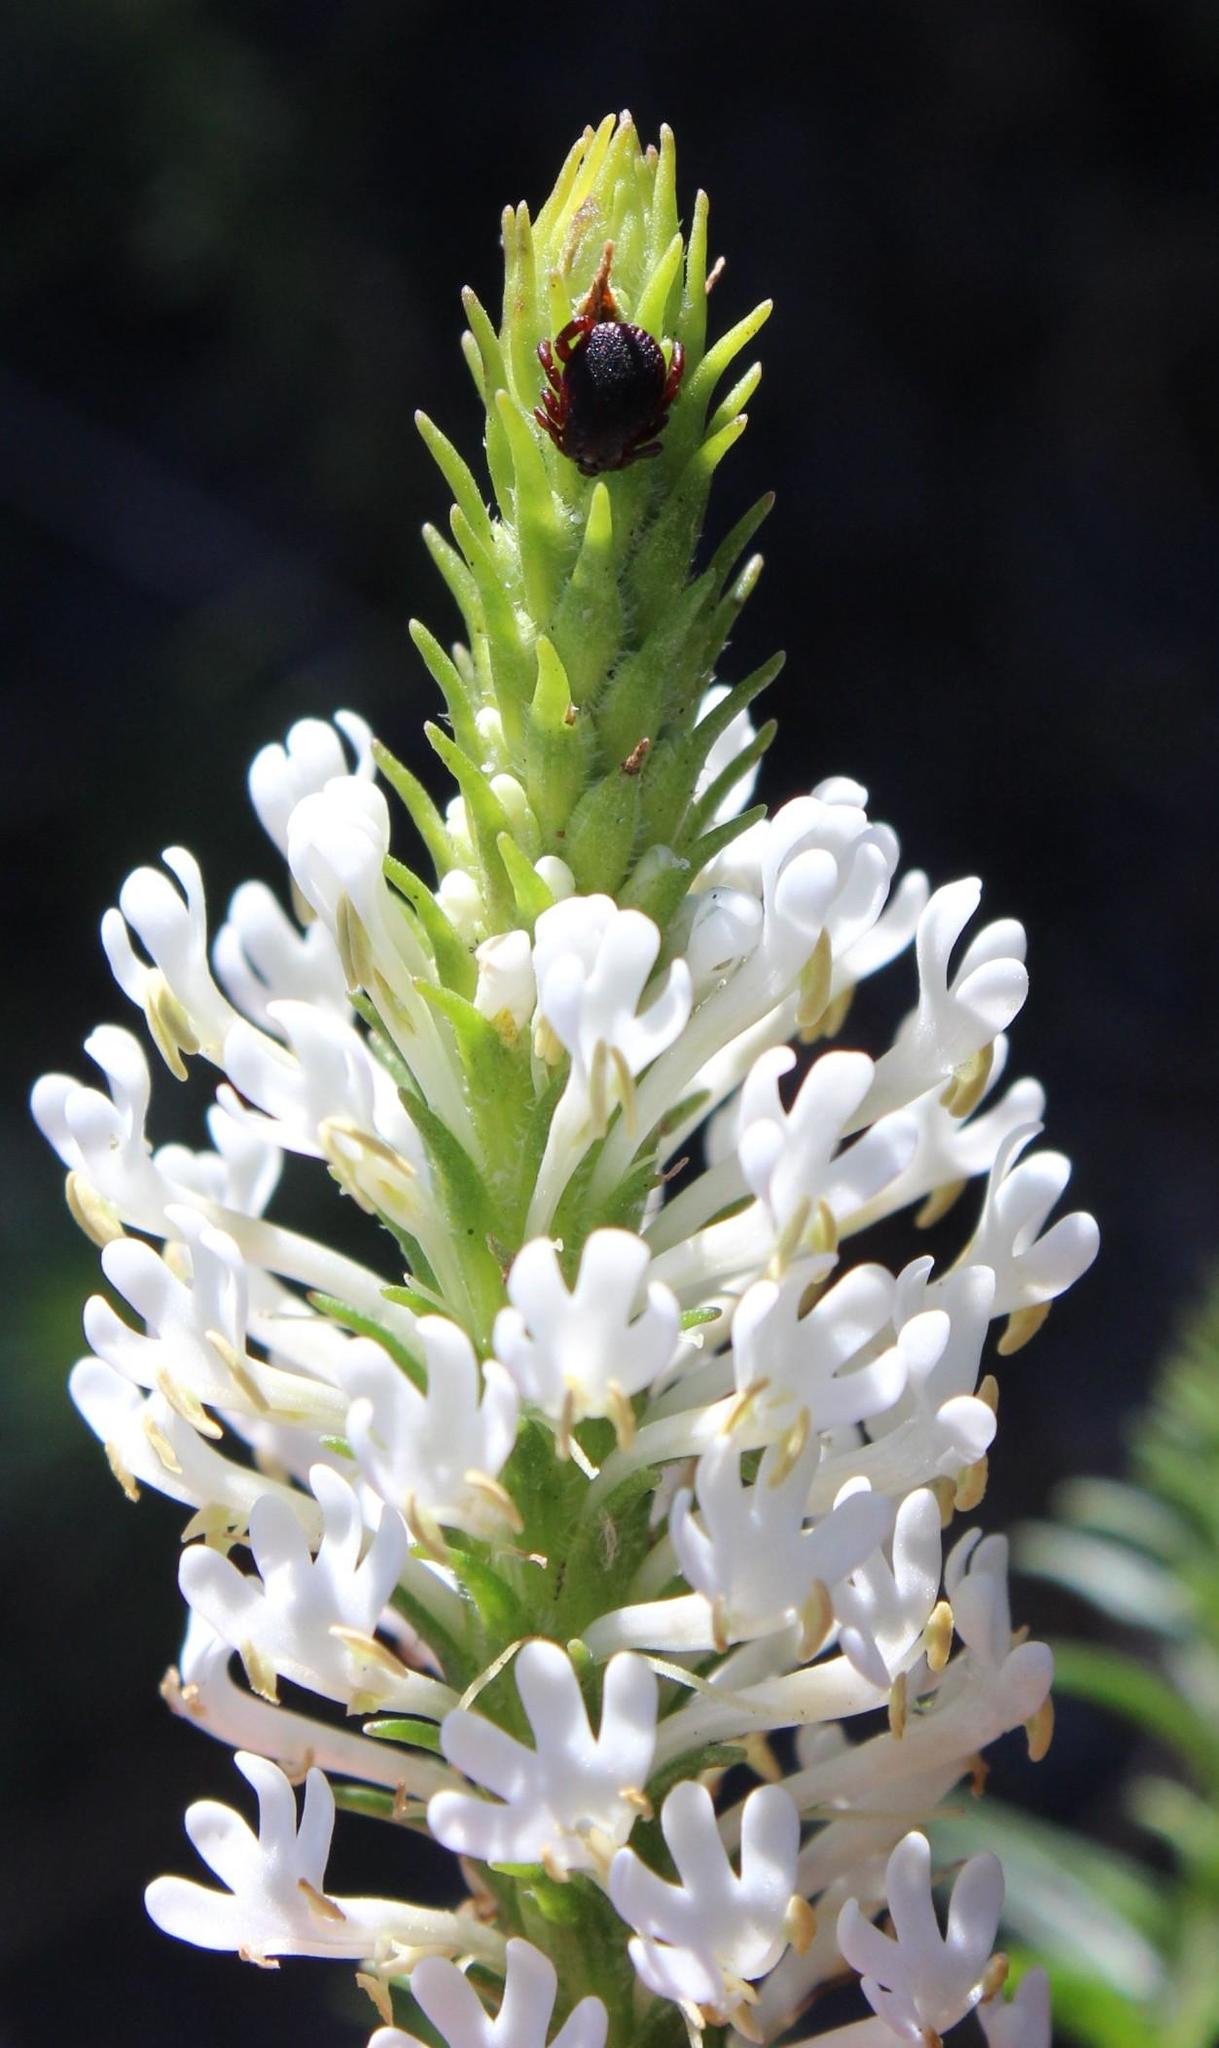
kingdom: Plantae
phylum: Tracheophyta
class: Magnoliopsida
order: Lamiales
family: Scrophulariaceae
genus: Dischisma
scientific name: Dischisma ciliatum
